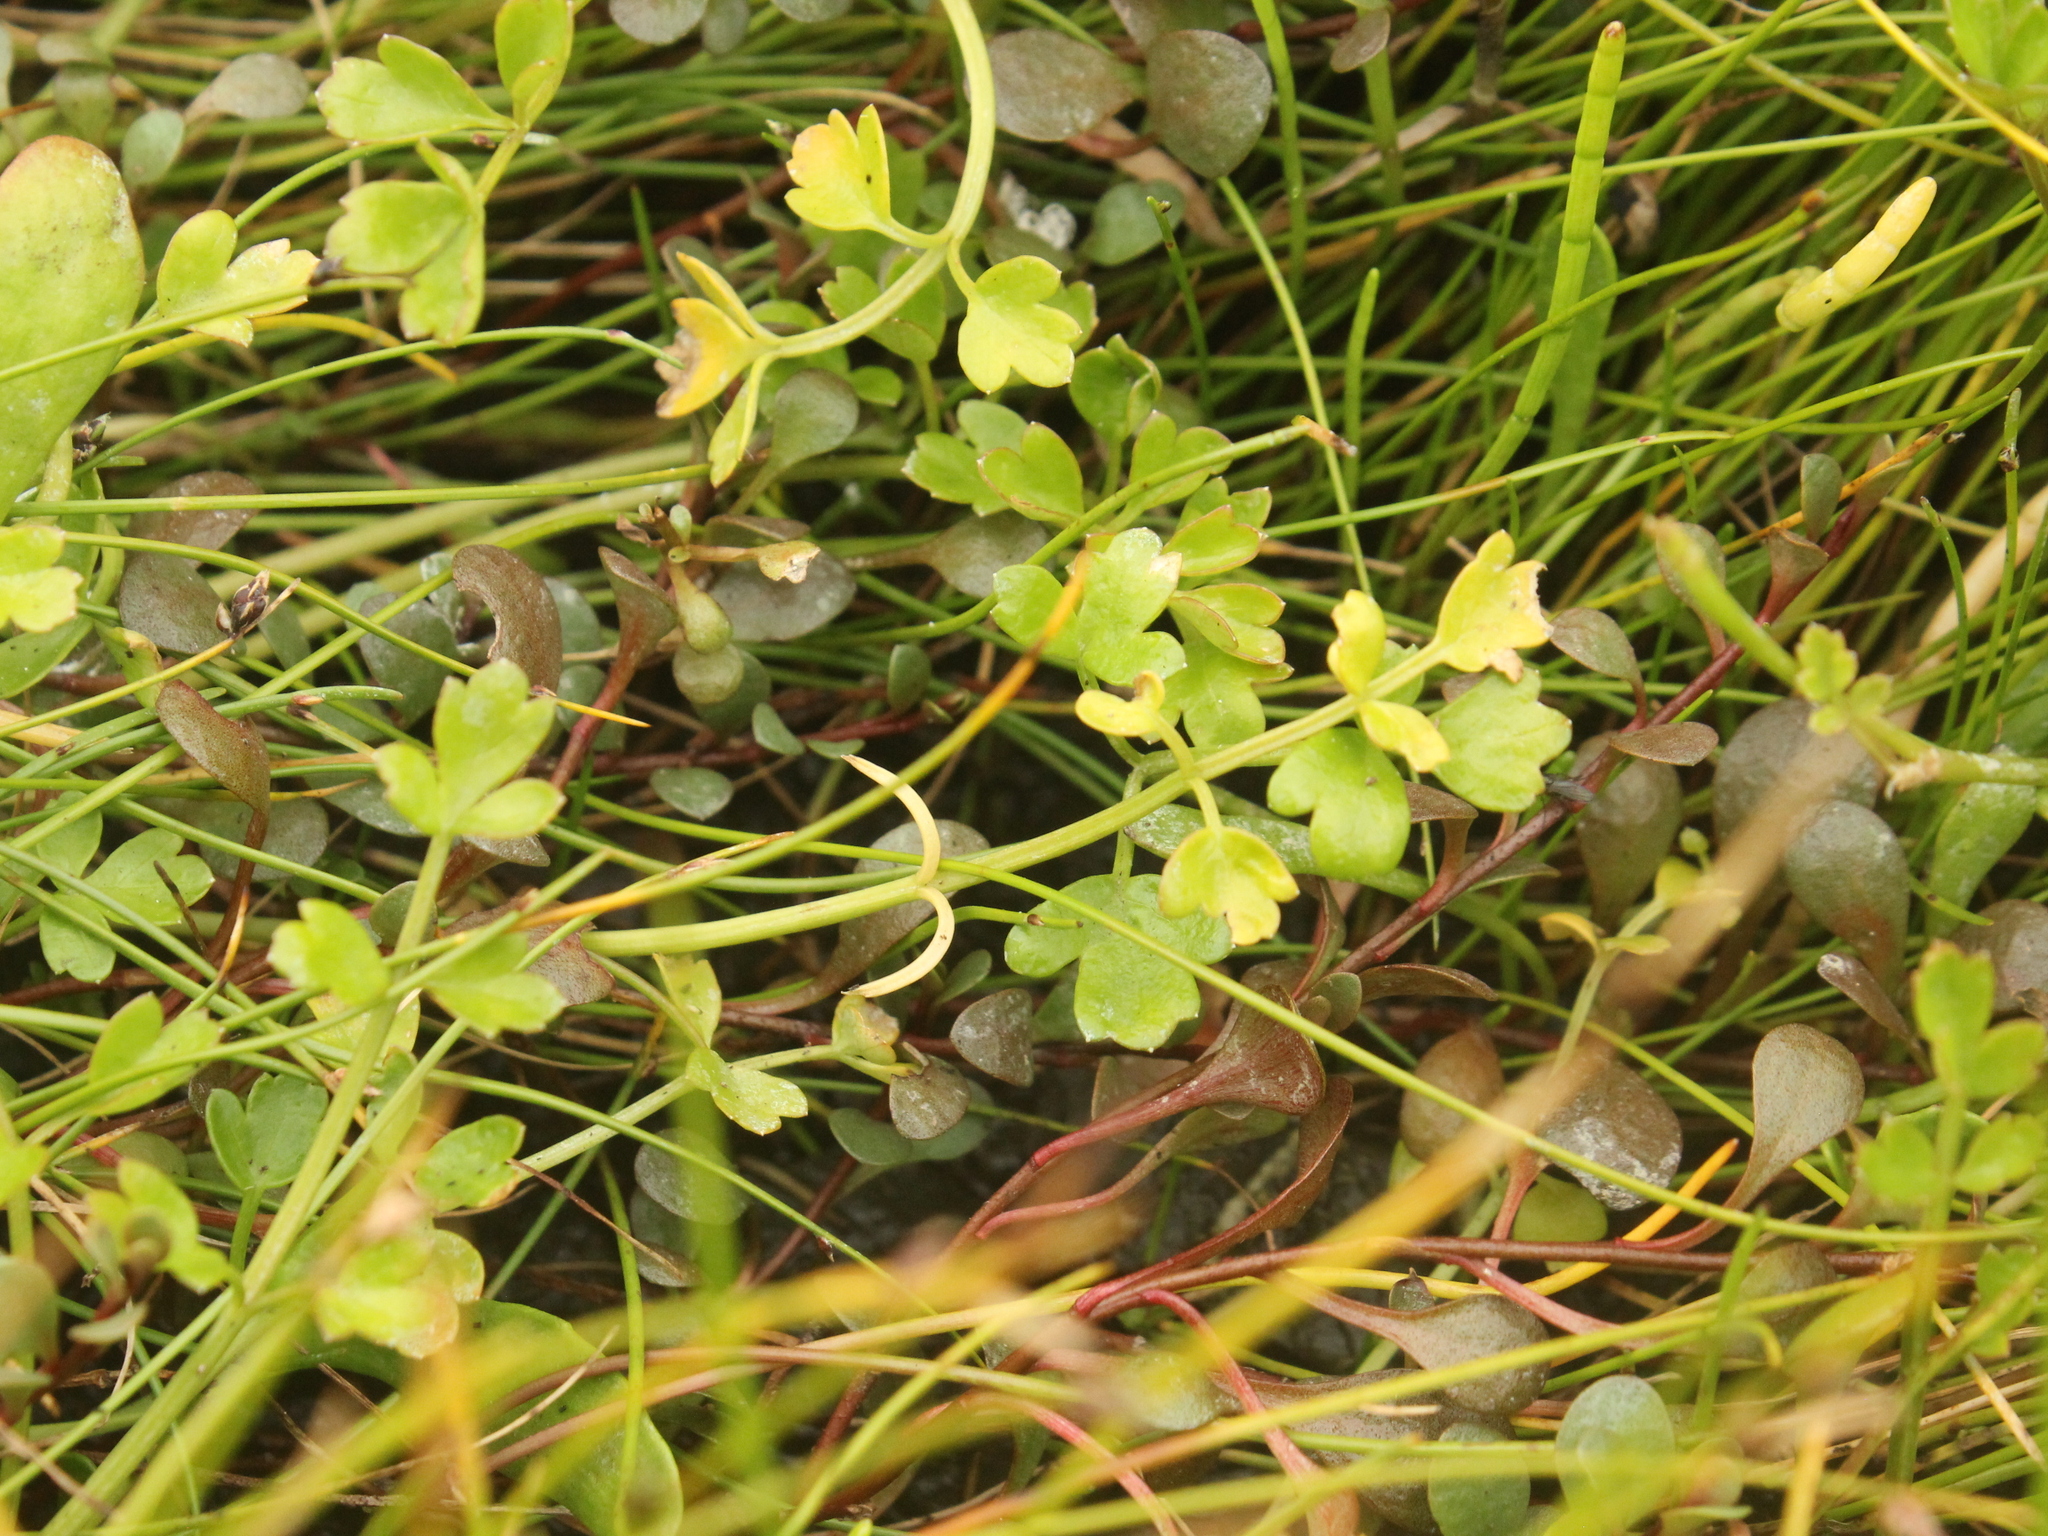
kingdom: Plantae
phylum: Tracheophyta
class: Magnoliopsida
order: Apiales
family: Apiaceae
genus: Apium
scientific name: Apium prostratum
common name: Prostrate marshwort
